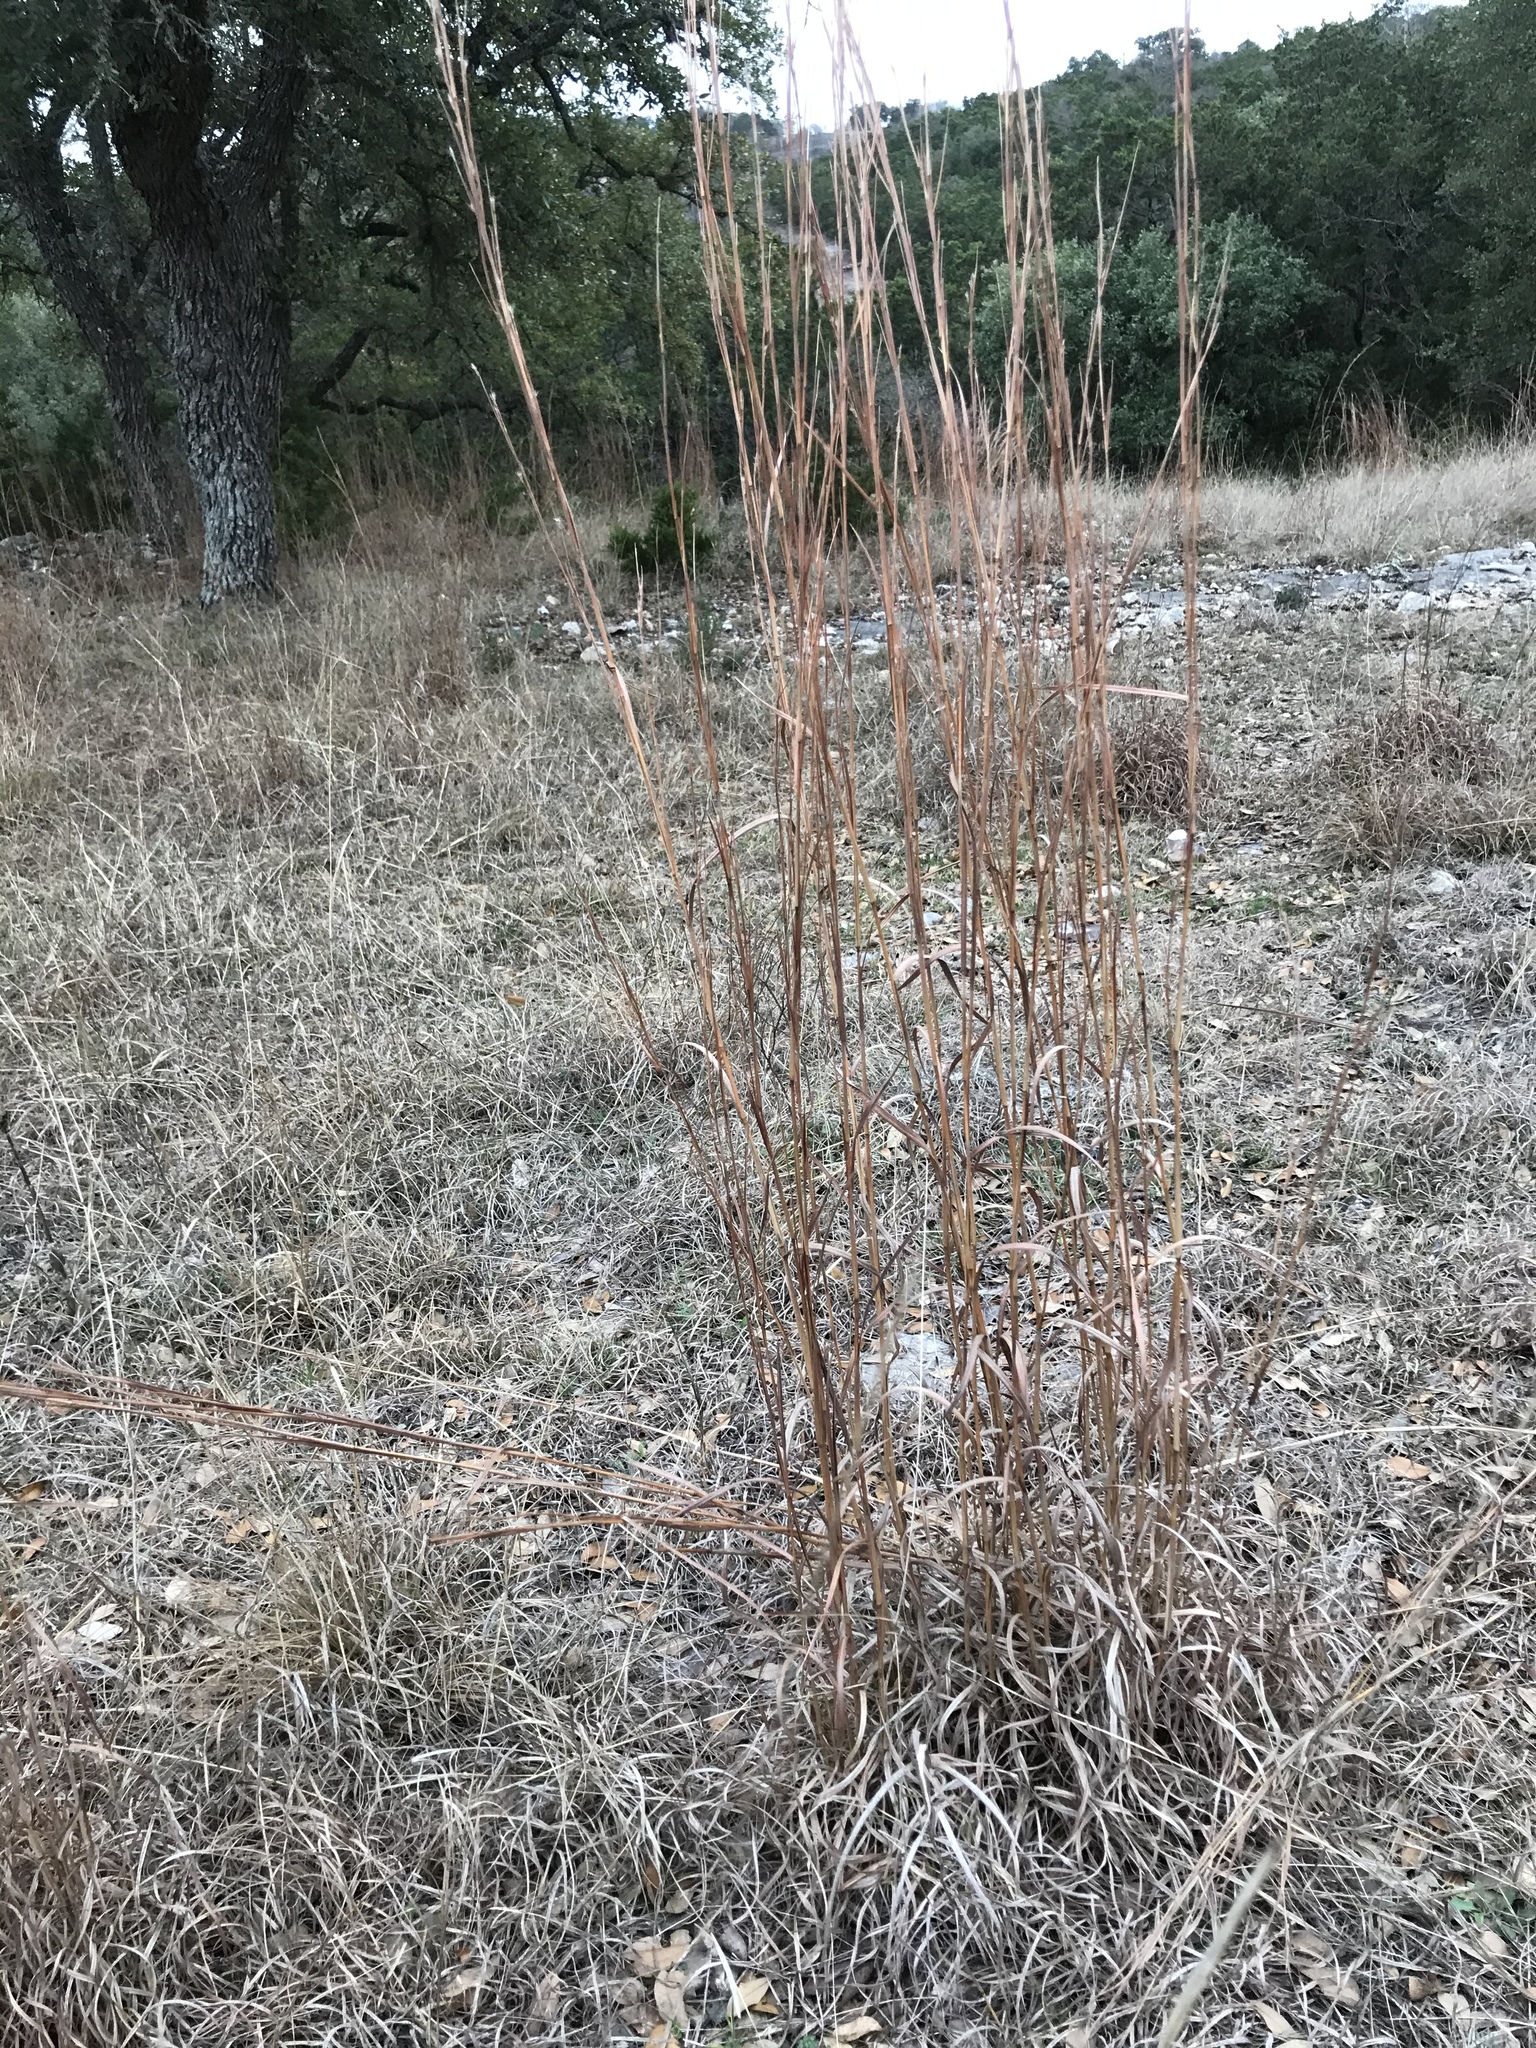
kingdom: Plantae
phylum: Tracheophyta
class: Liliopsida
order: Poales
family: Poaceae
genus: Schizachyrium
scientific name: Schizachyrium scoparium
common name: Little bluestem
